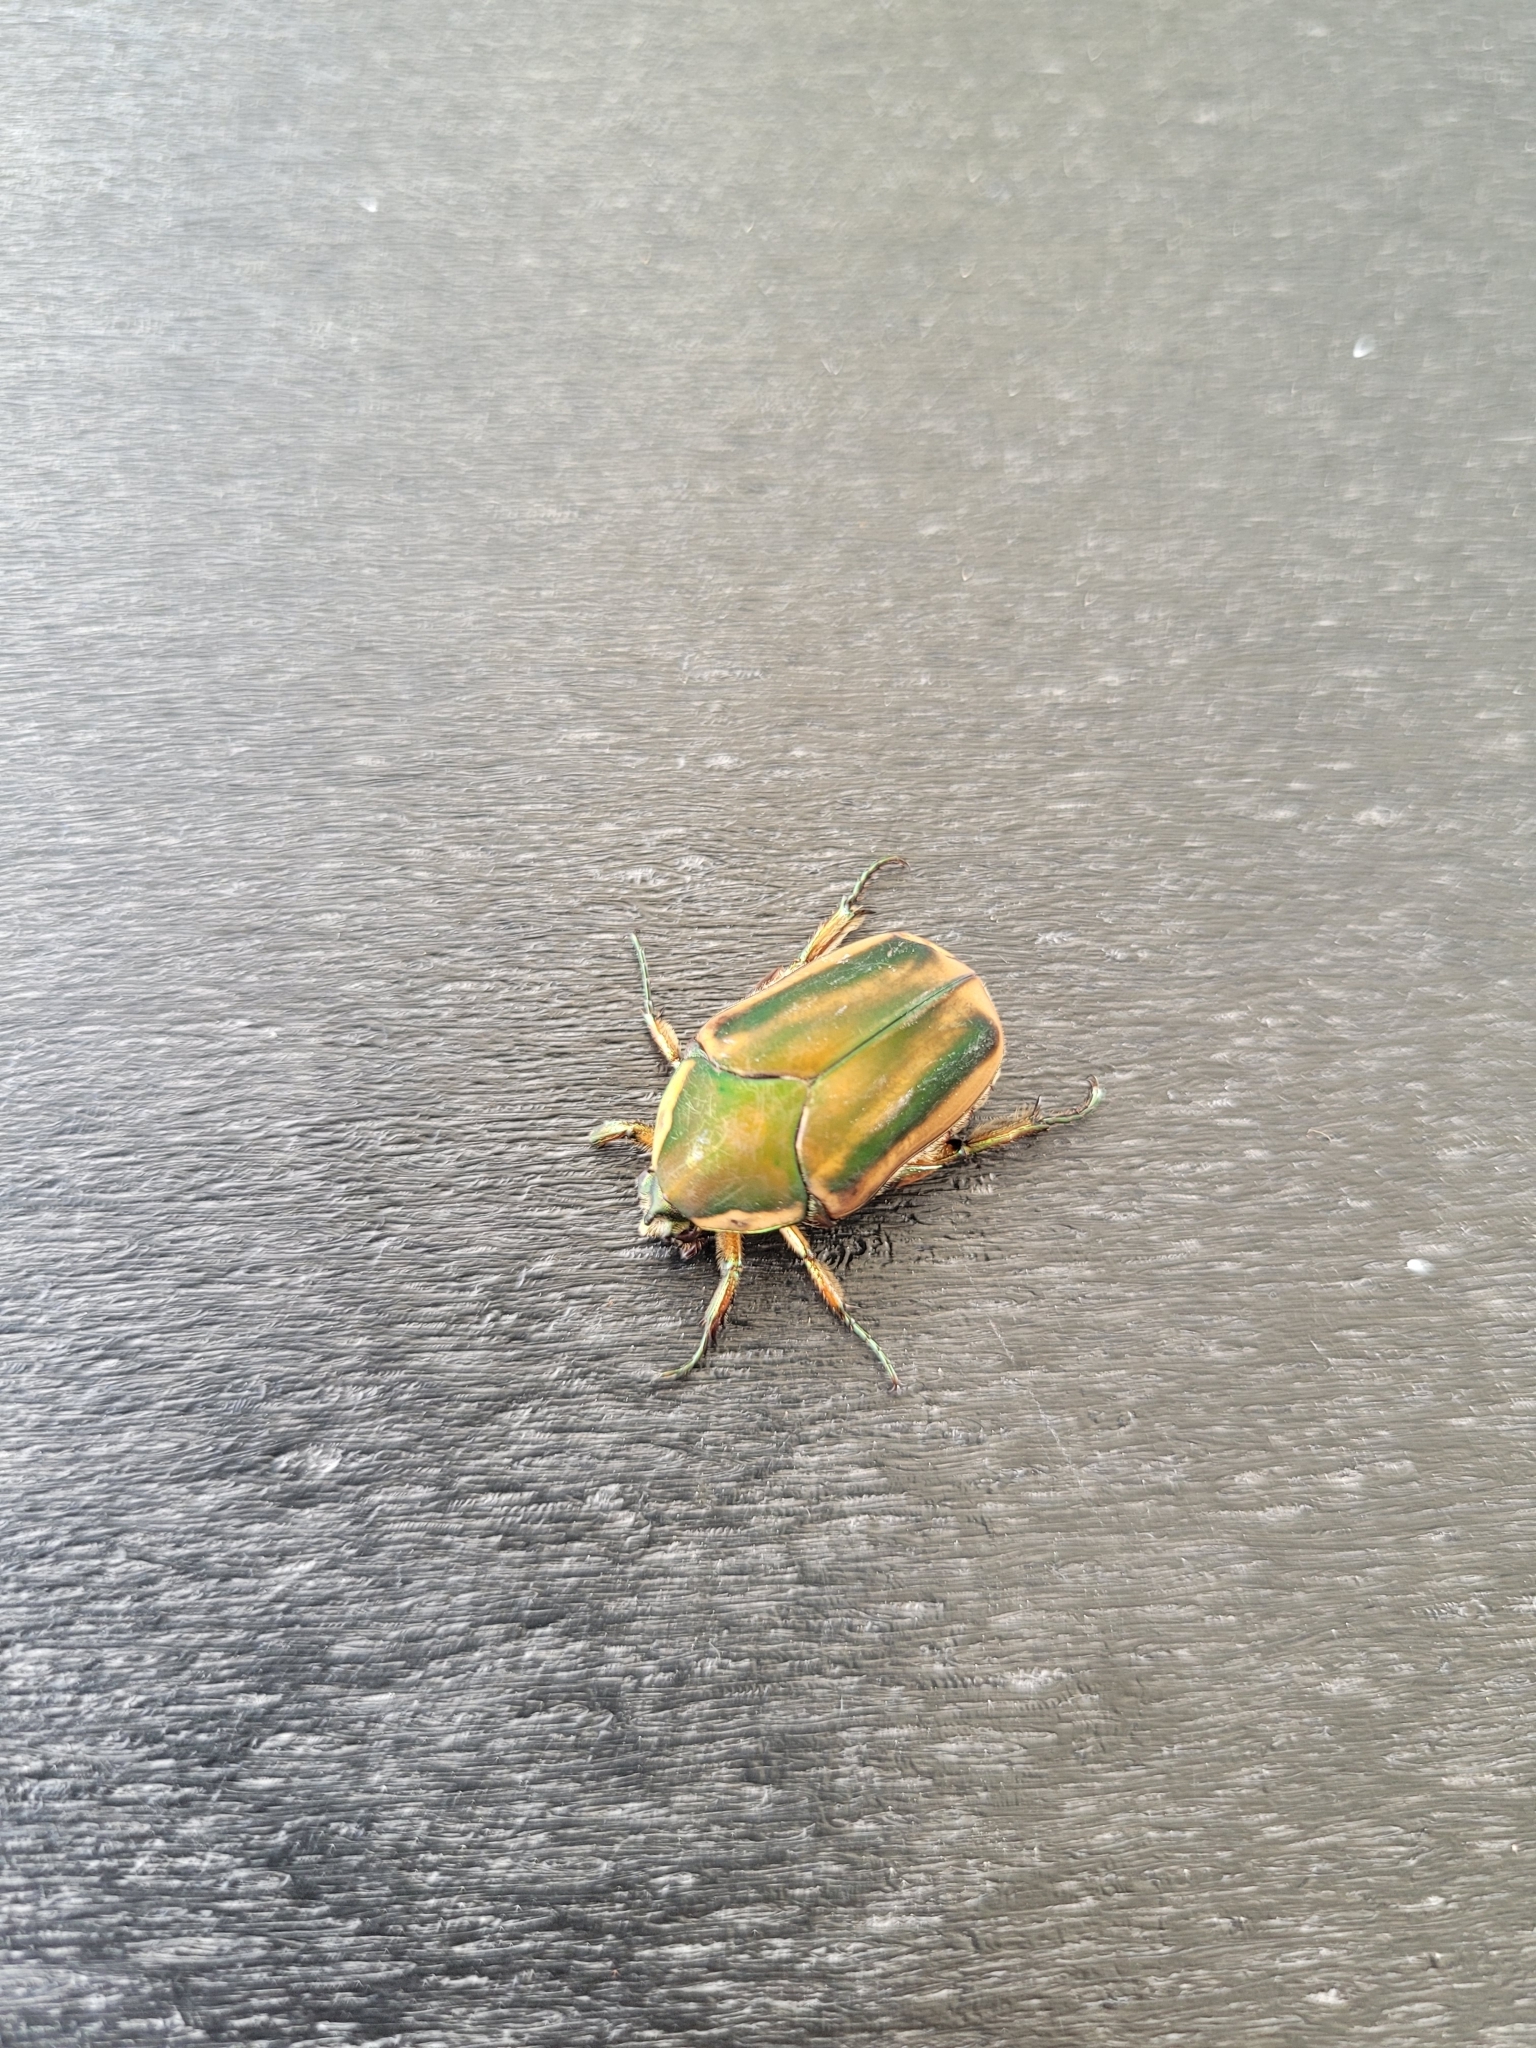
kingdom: Animalia
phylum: Arthropoda
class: Insecta
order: Coleoptera
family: Scarabaeidae
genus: Cotinis
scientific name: Cotinis nitida
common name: Common green june beetle
